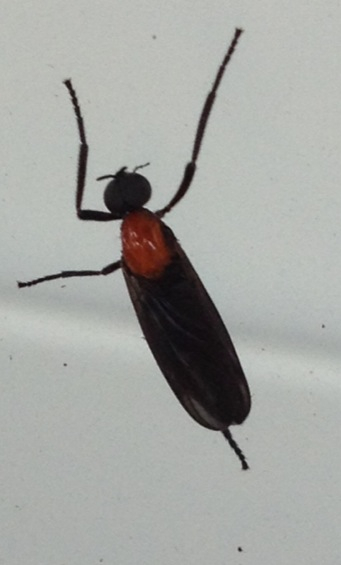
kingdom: Animalia
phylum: Arthropoda
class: Insecta
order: Diptera
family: Bibionidae
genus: Plecia
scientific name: Plecia nearctica
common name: March fly
